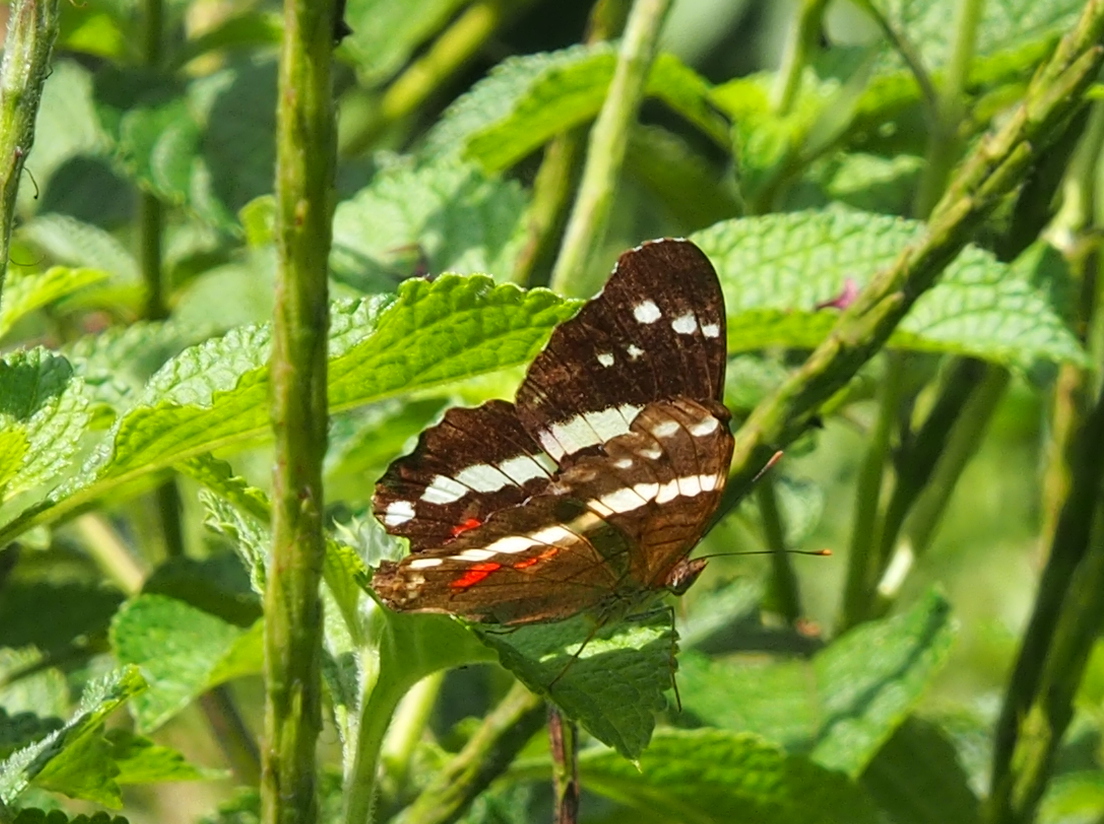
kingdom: Animalia
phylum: Arthropoda
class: Insecta
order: Lepidoptera
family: Nymphalidae
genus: Anartia
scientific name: Anartia fatima
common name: Banded peacock
